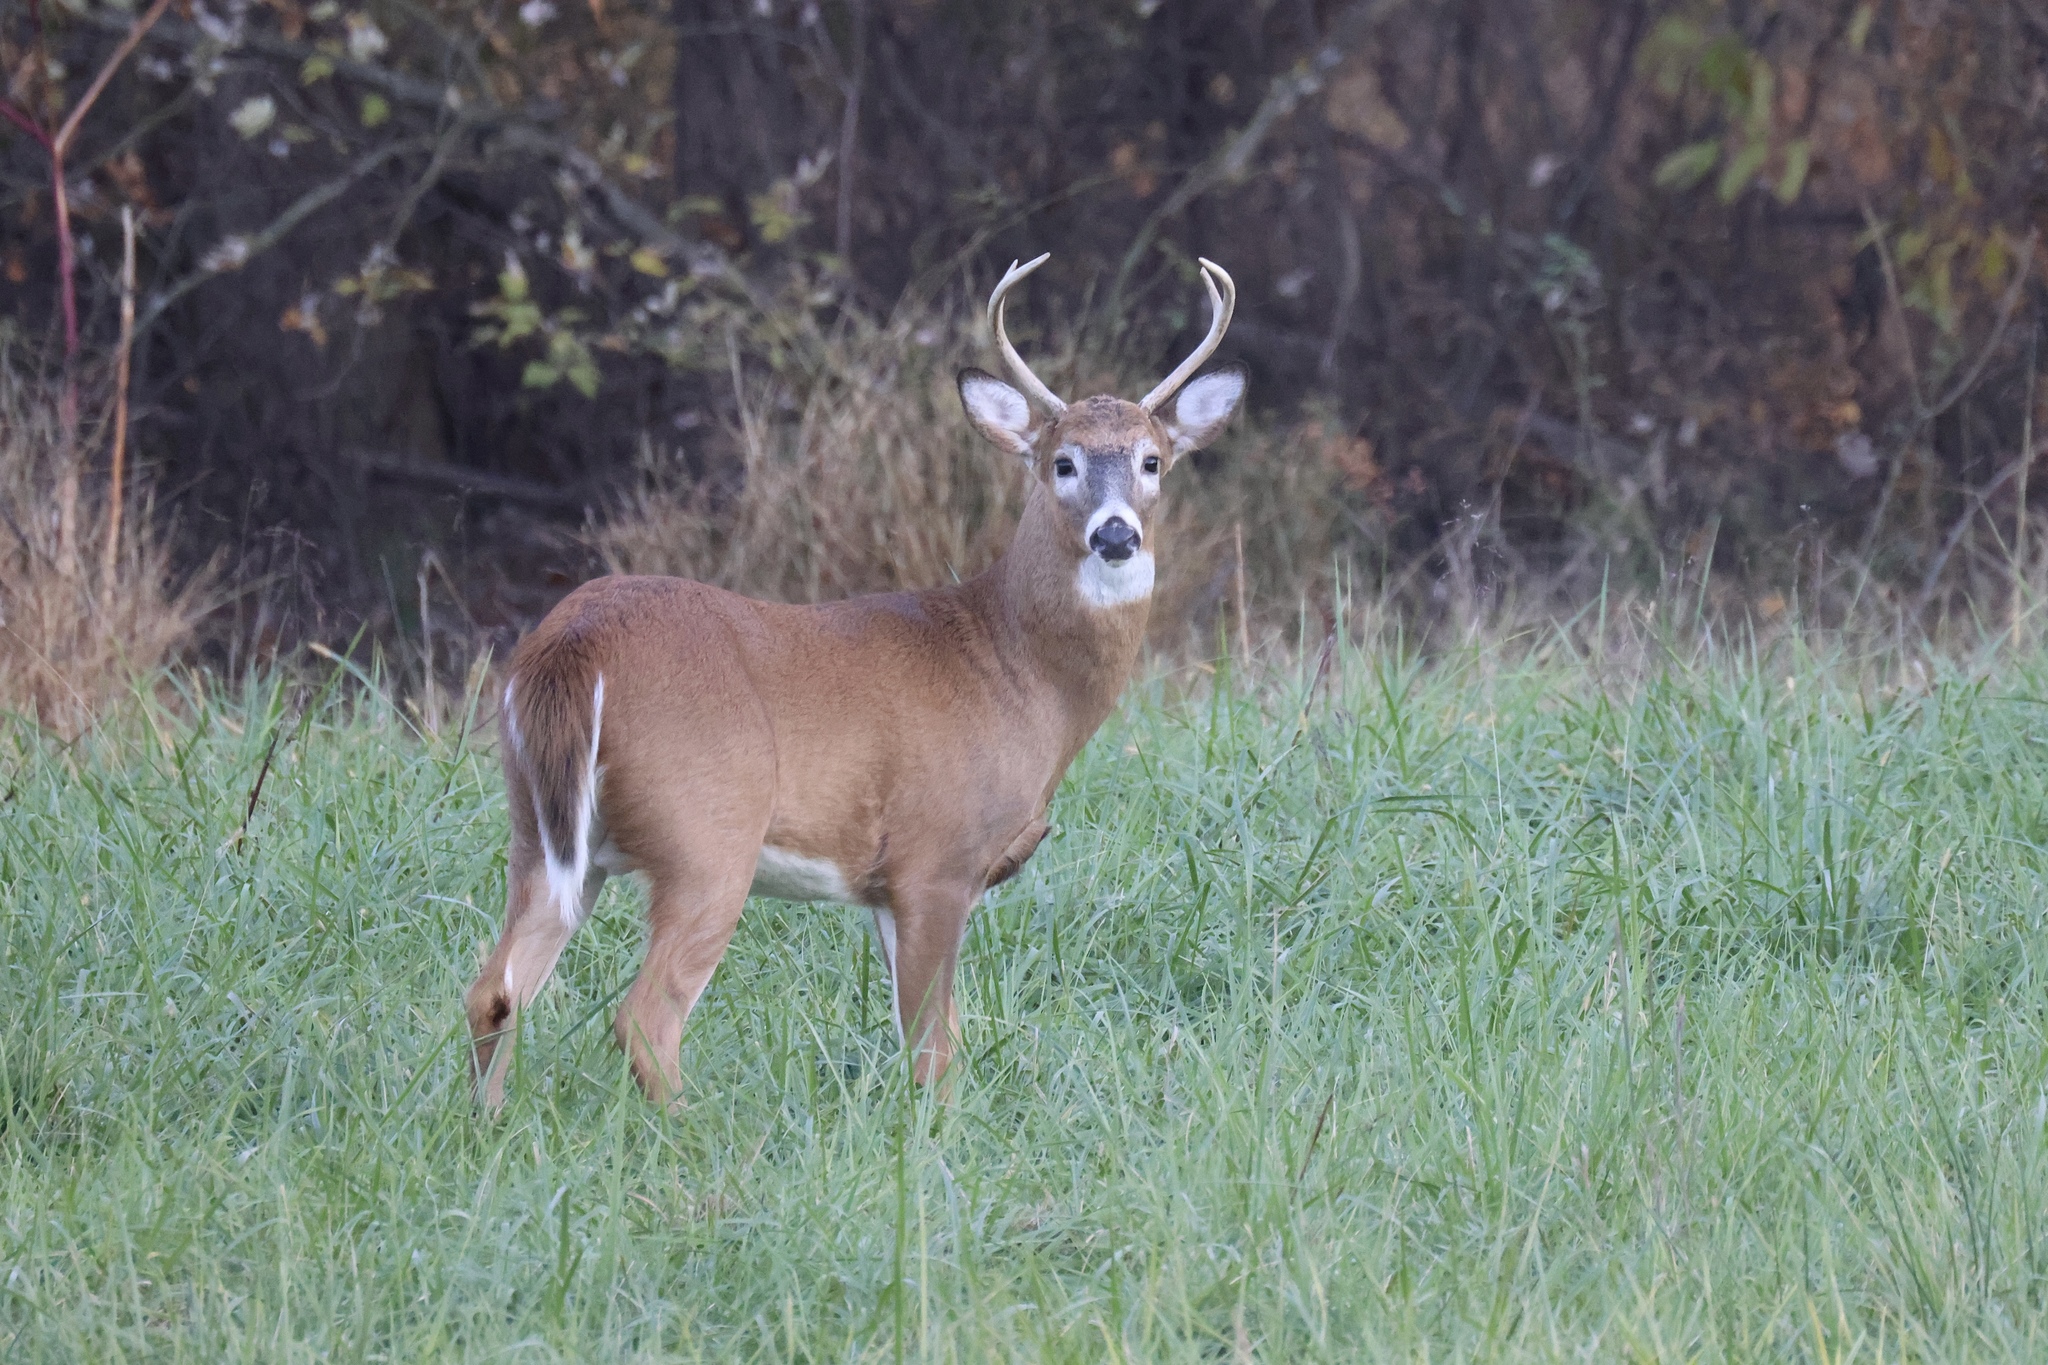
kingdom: Animalia
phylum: Chordata
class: Mammalia
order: Artiodactyla
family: Cervidae
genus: Odocoileus
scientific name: Odocoileus virginianus
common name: White-tailed deer
